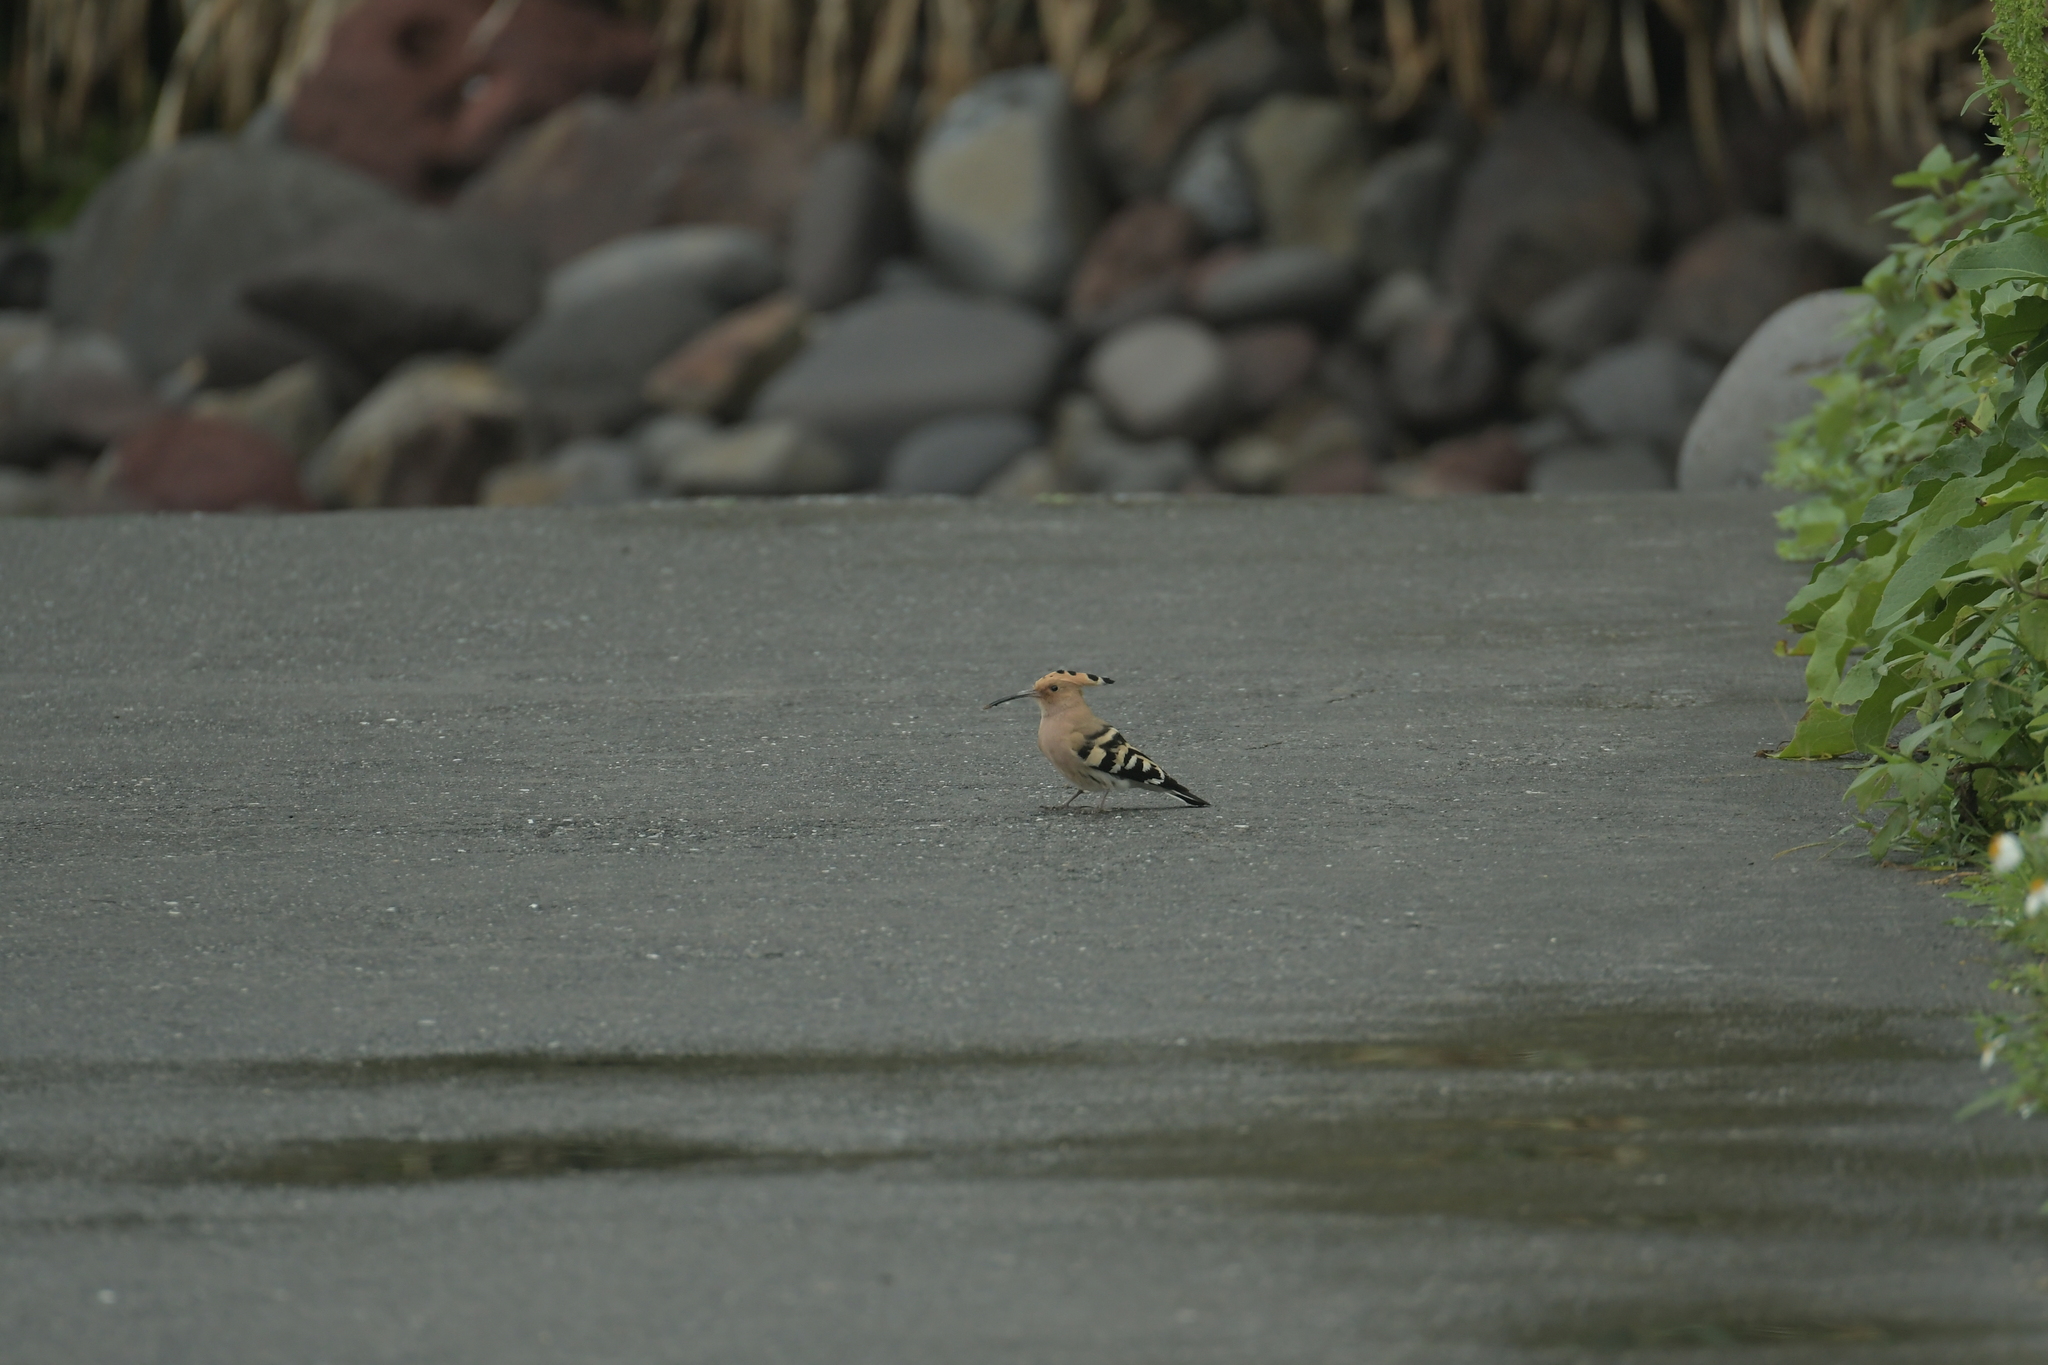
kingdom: Animalia
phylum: Chordata
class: Aves
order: Bucerotiformes
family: Upupidae
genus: Upupa
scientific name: Upupa epops
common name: Eurasian hoopoe
